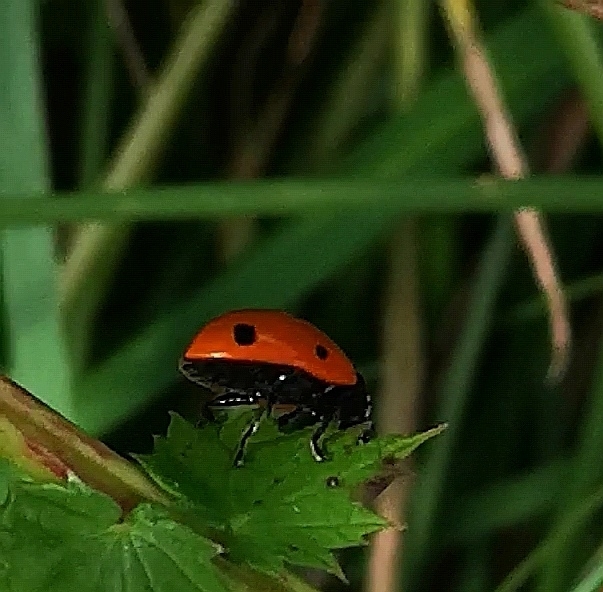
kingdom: Animalia
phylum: Arthropoda
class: Insecta
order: Coleoptera
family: Coccinellidae
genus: Coccinella
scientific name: Coccinella septempunctata
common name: Sevenspotted lady beetle
